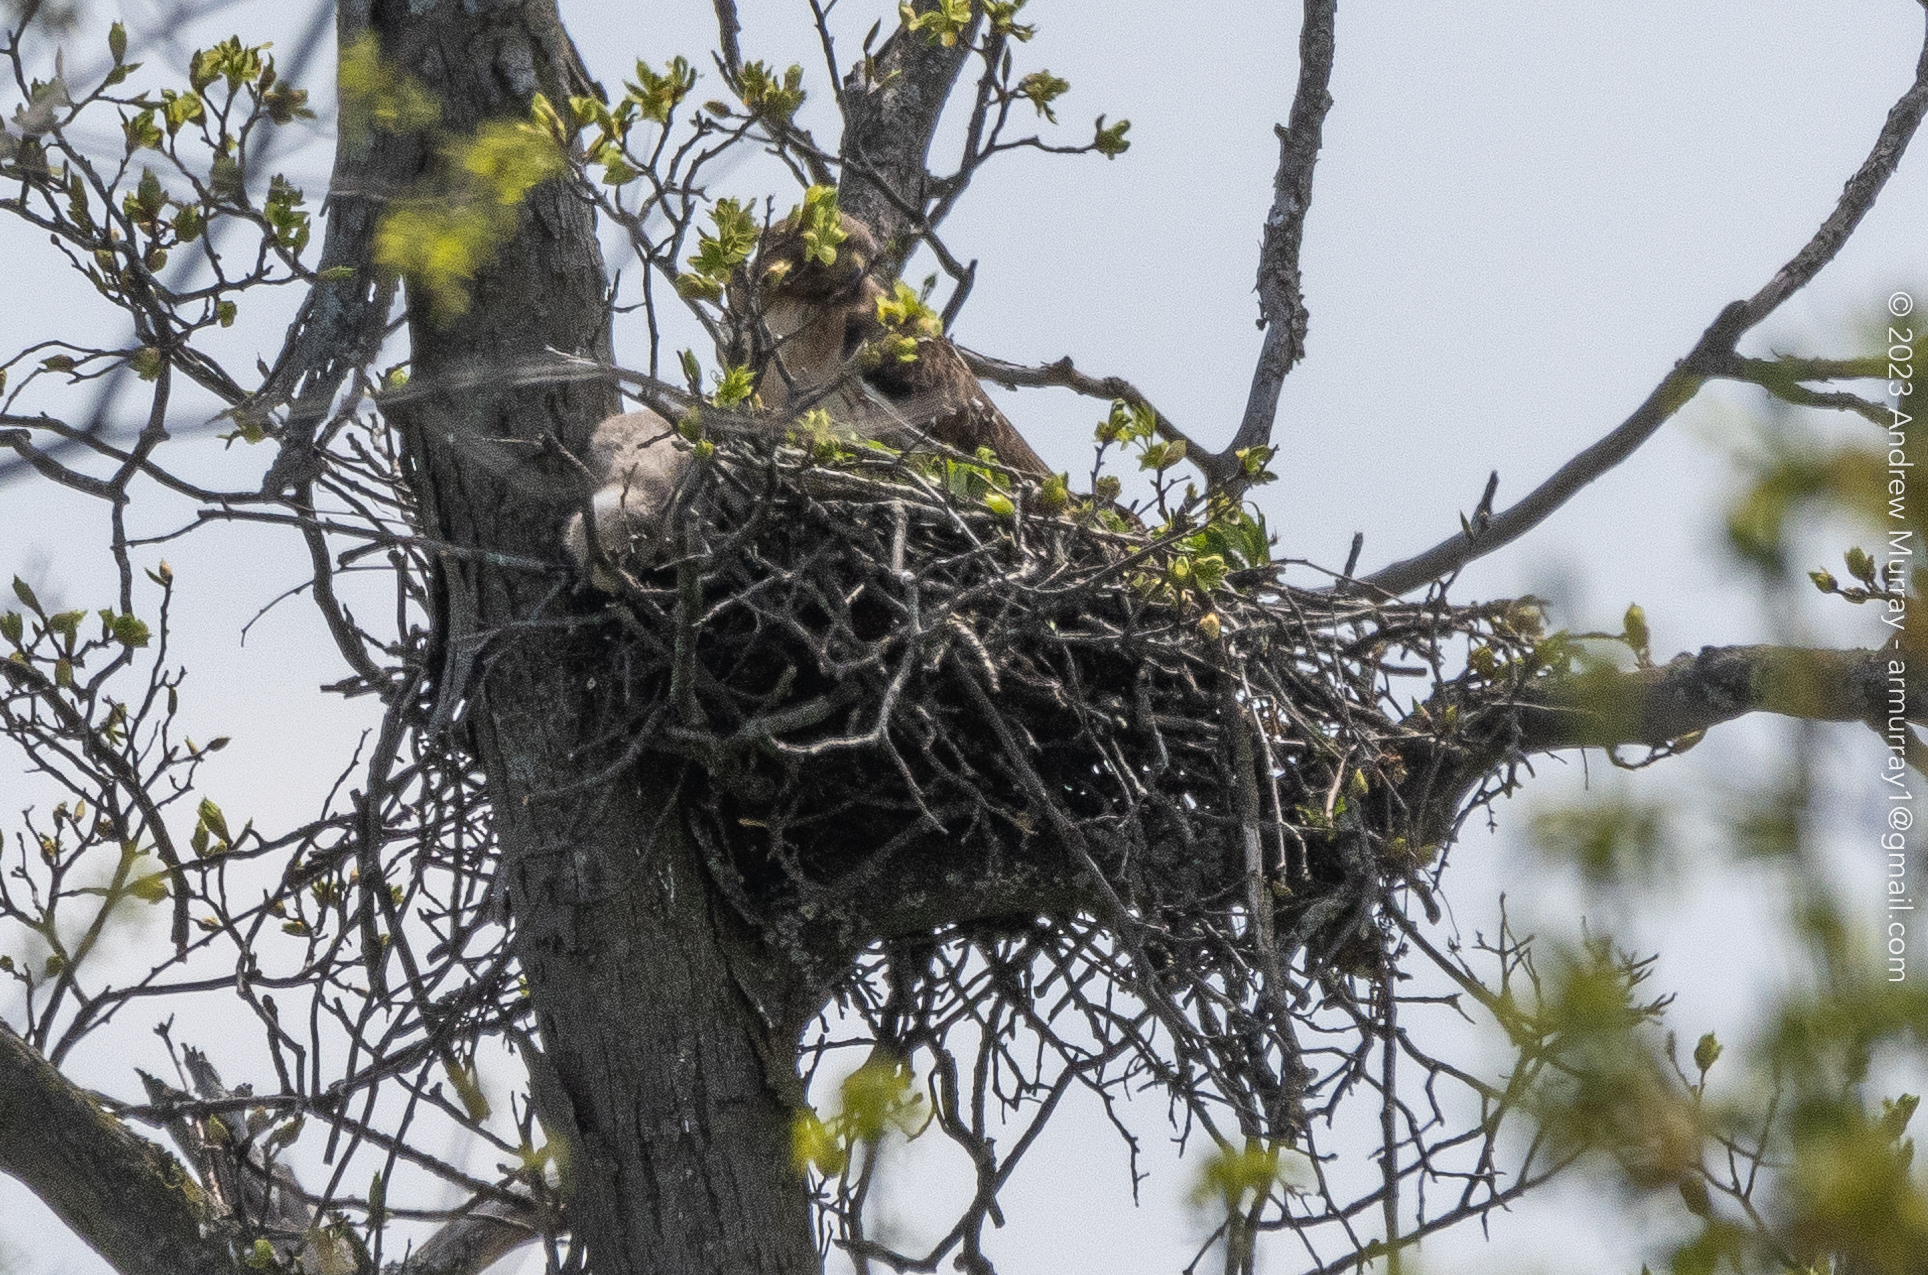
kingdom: Animalia
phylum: Chordata
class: Aves
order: Accipitriformes
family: Accipitridae
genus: Buteo
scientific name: Buteo jamaicensis
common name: Red-tailed hawk
